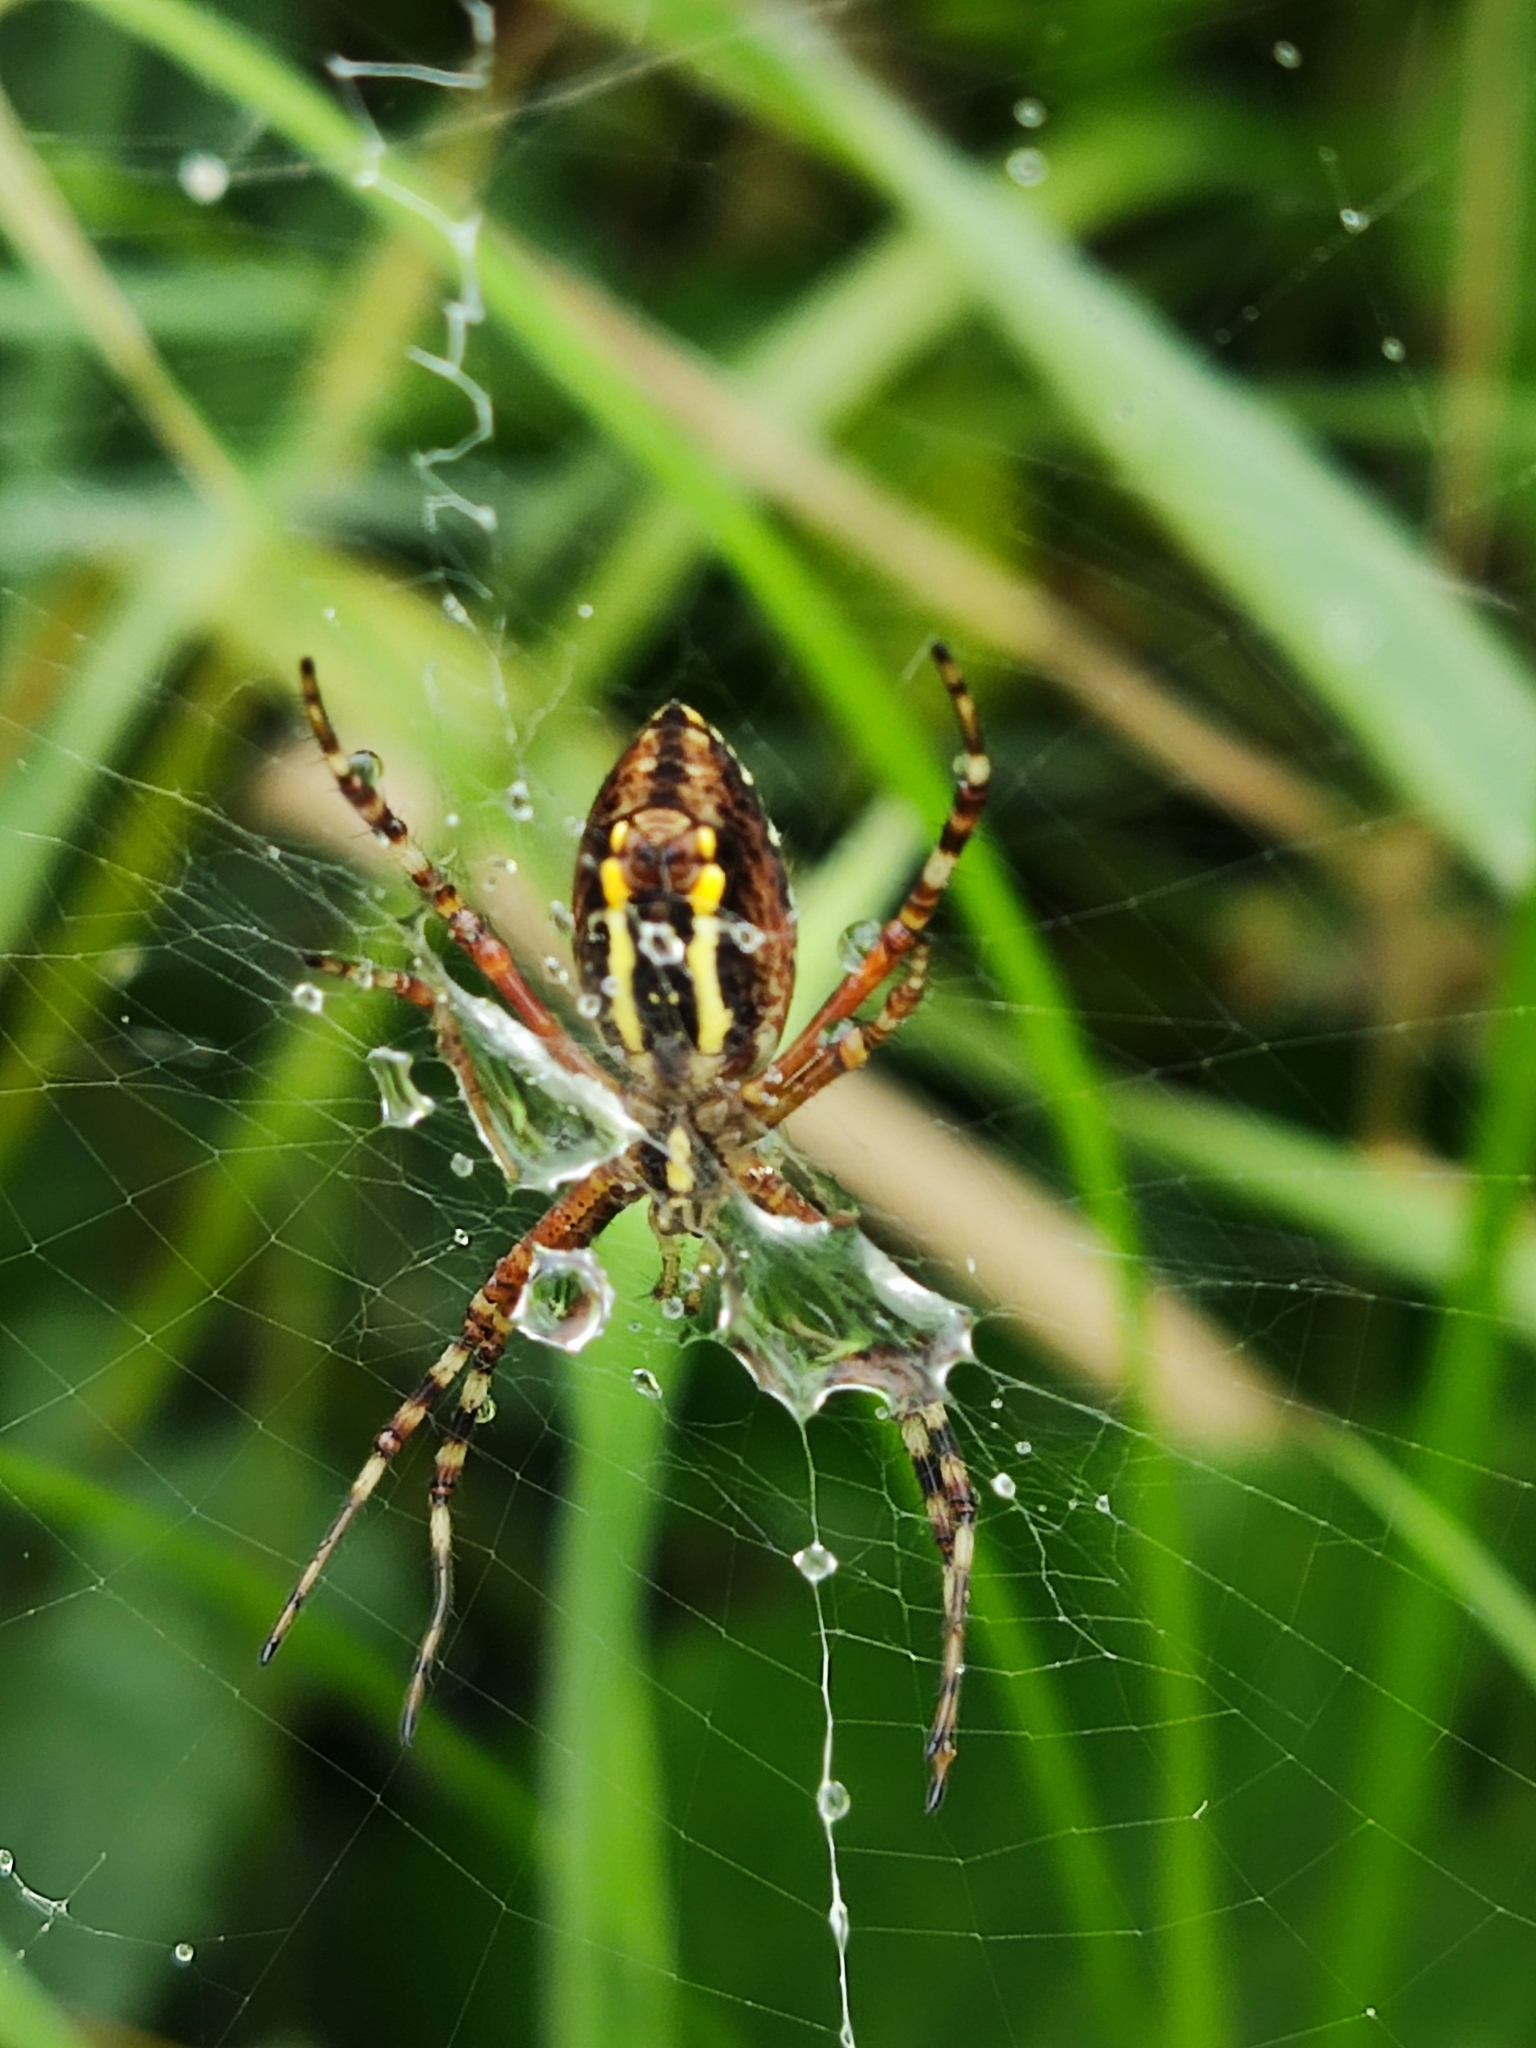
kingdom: Animalia
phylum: Arthropoda
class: Arachnida
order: Araneae
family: Araneidae
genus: Argiope
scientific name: Argiope bruennichi
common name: Wasp spider
